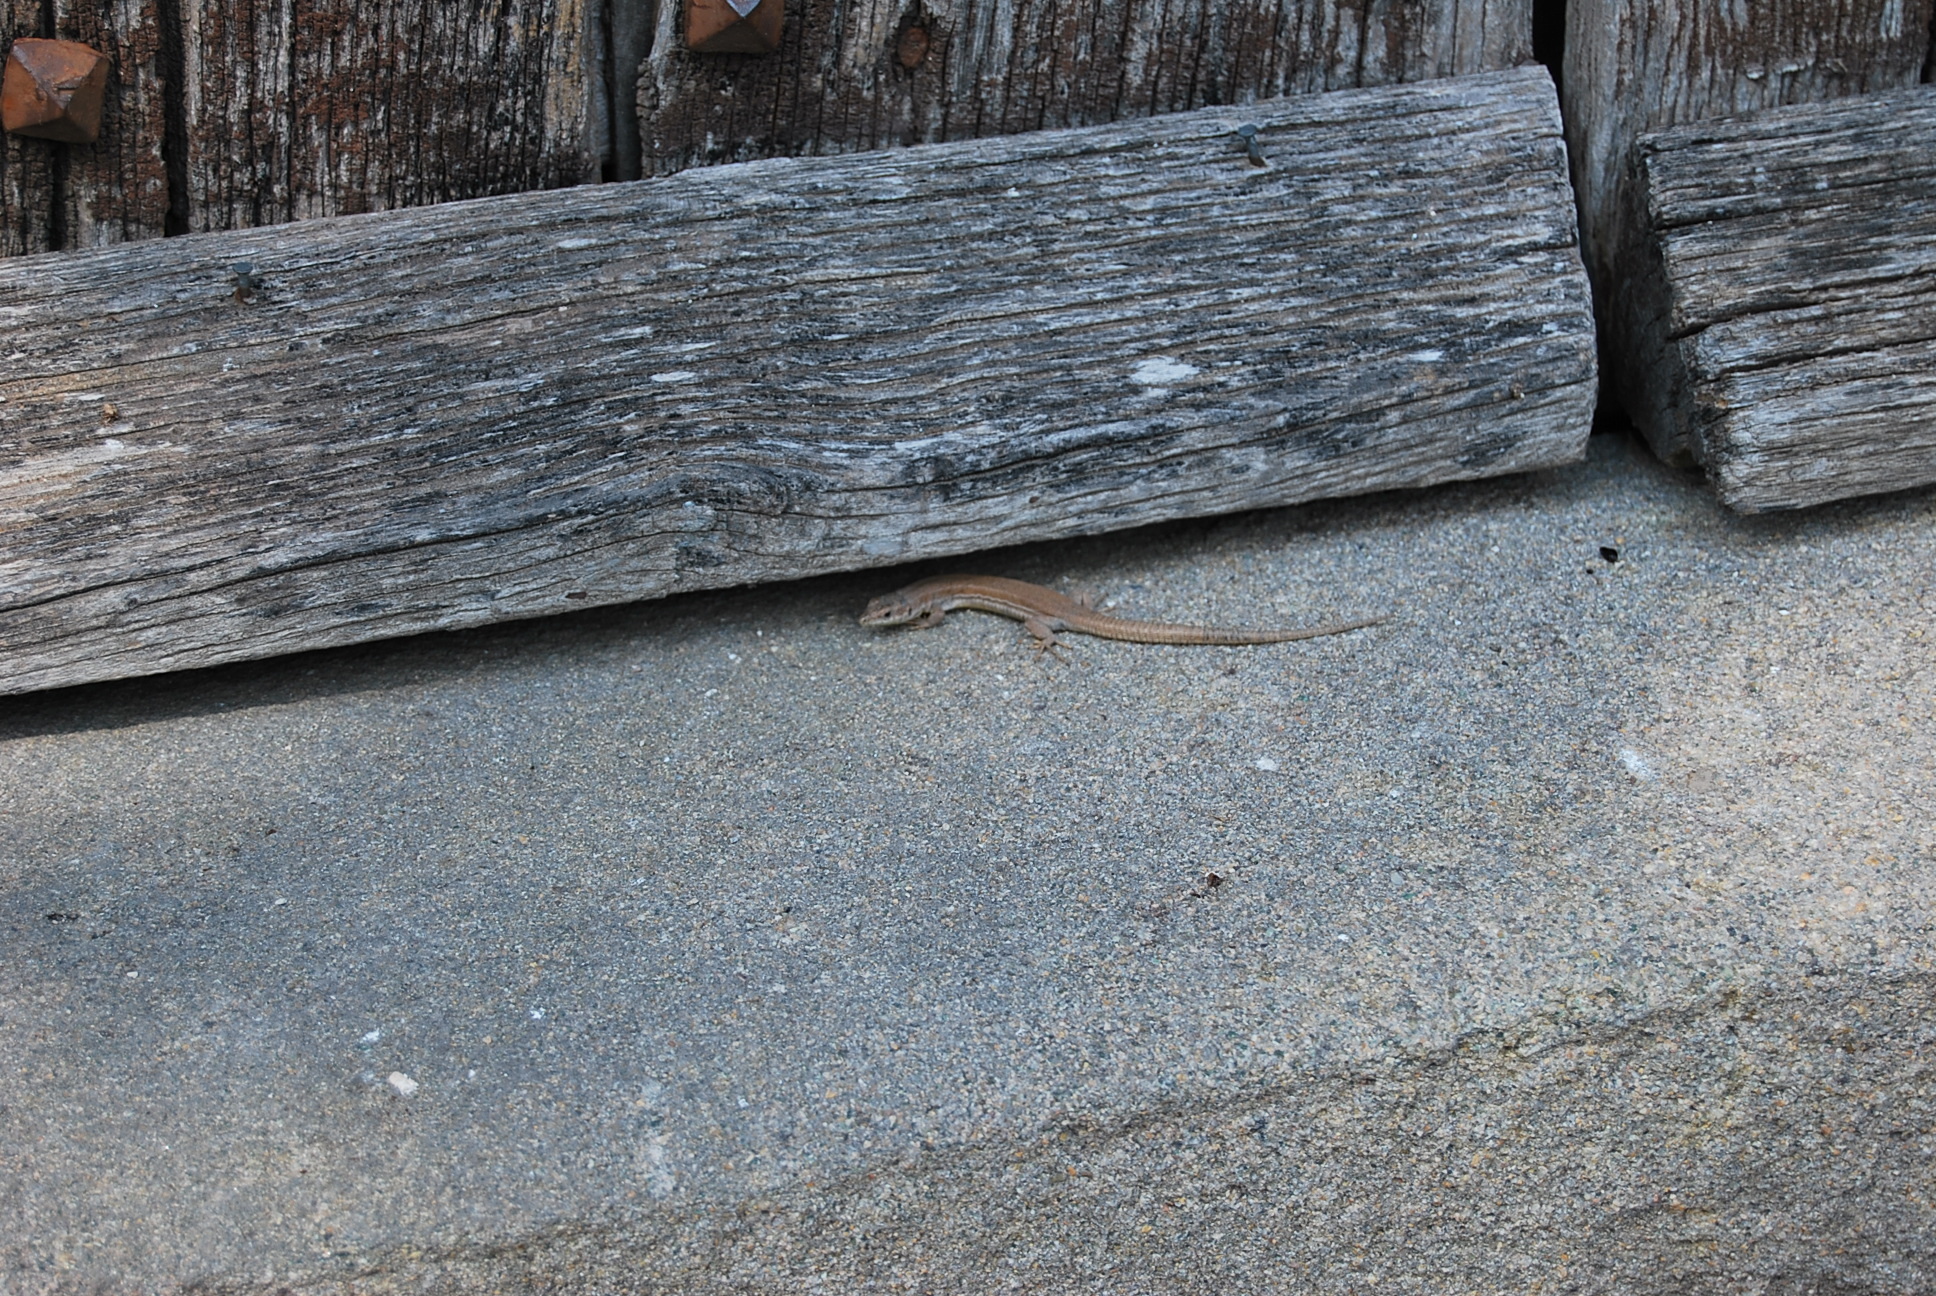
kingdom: Animalia
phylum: Chordata
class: Squamata
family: Lacertidae
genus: Podarcis
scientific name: Podarcis liolepis
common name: Catalonian wall lizard
